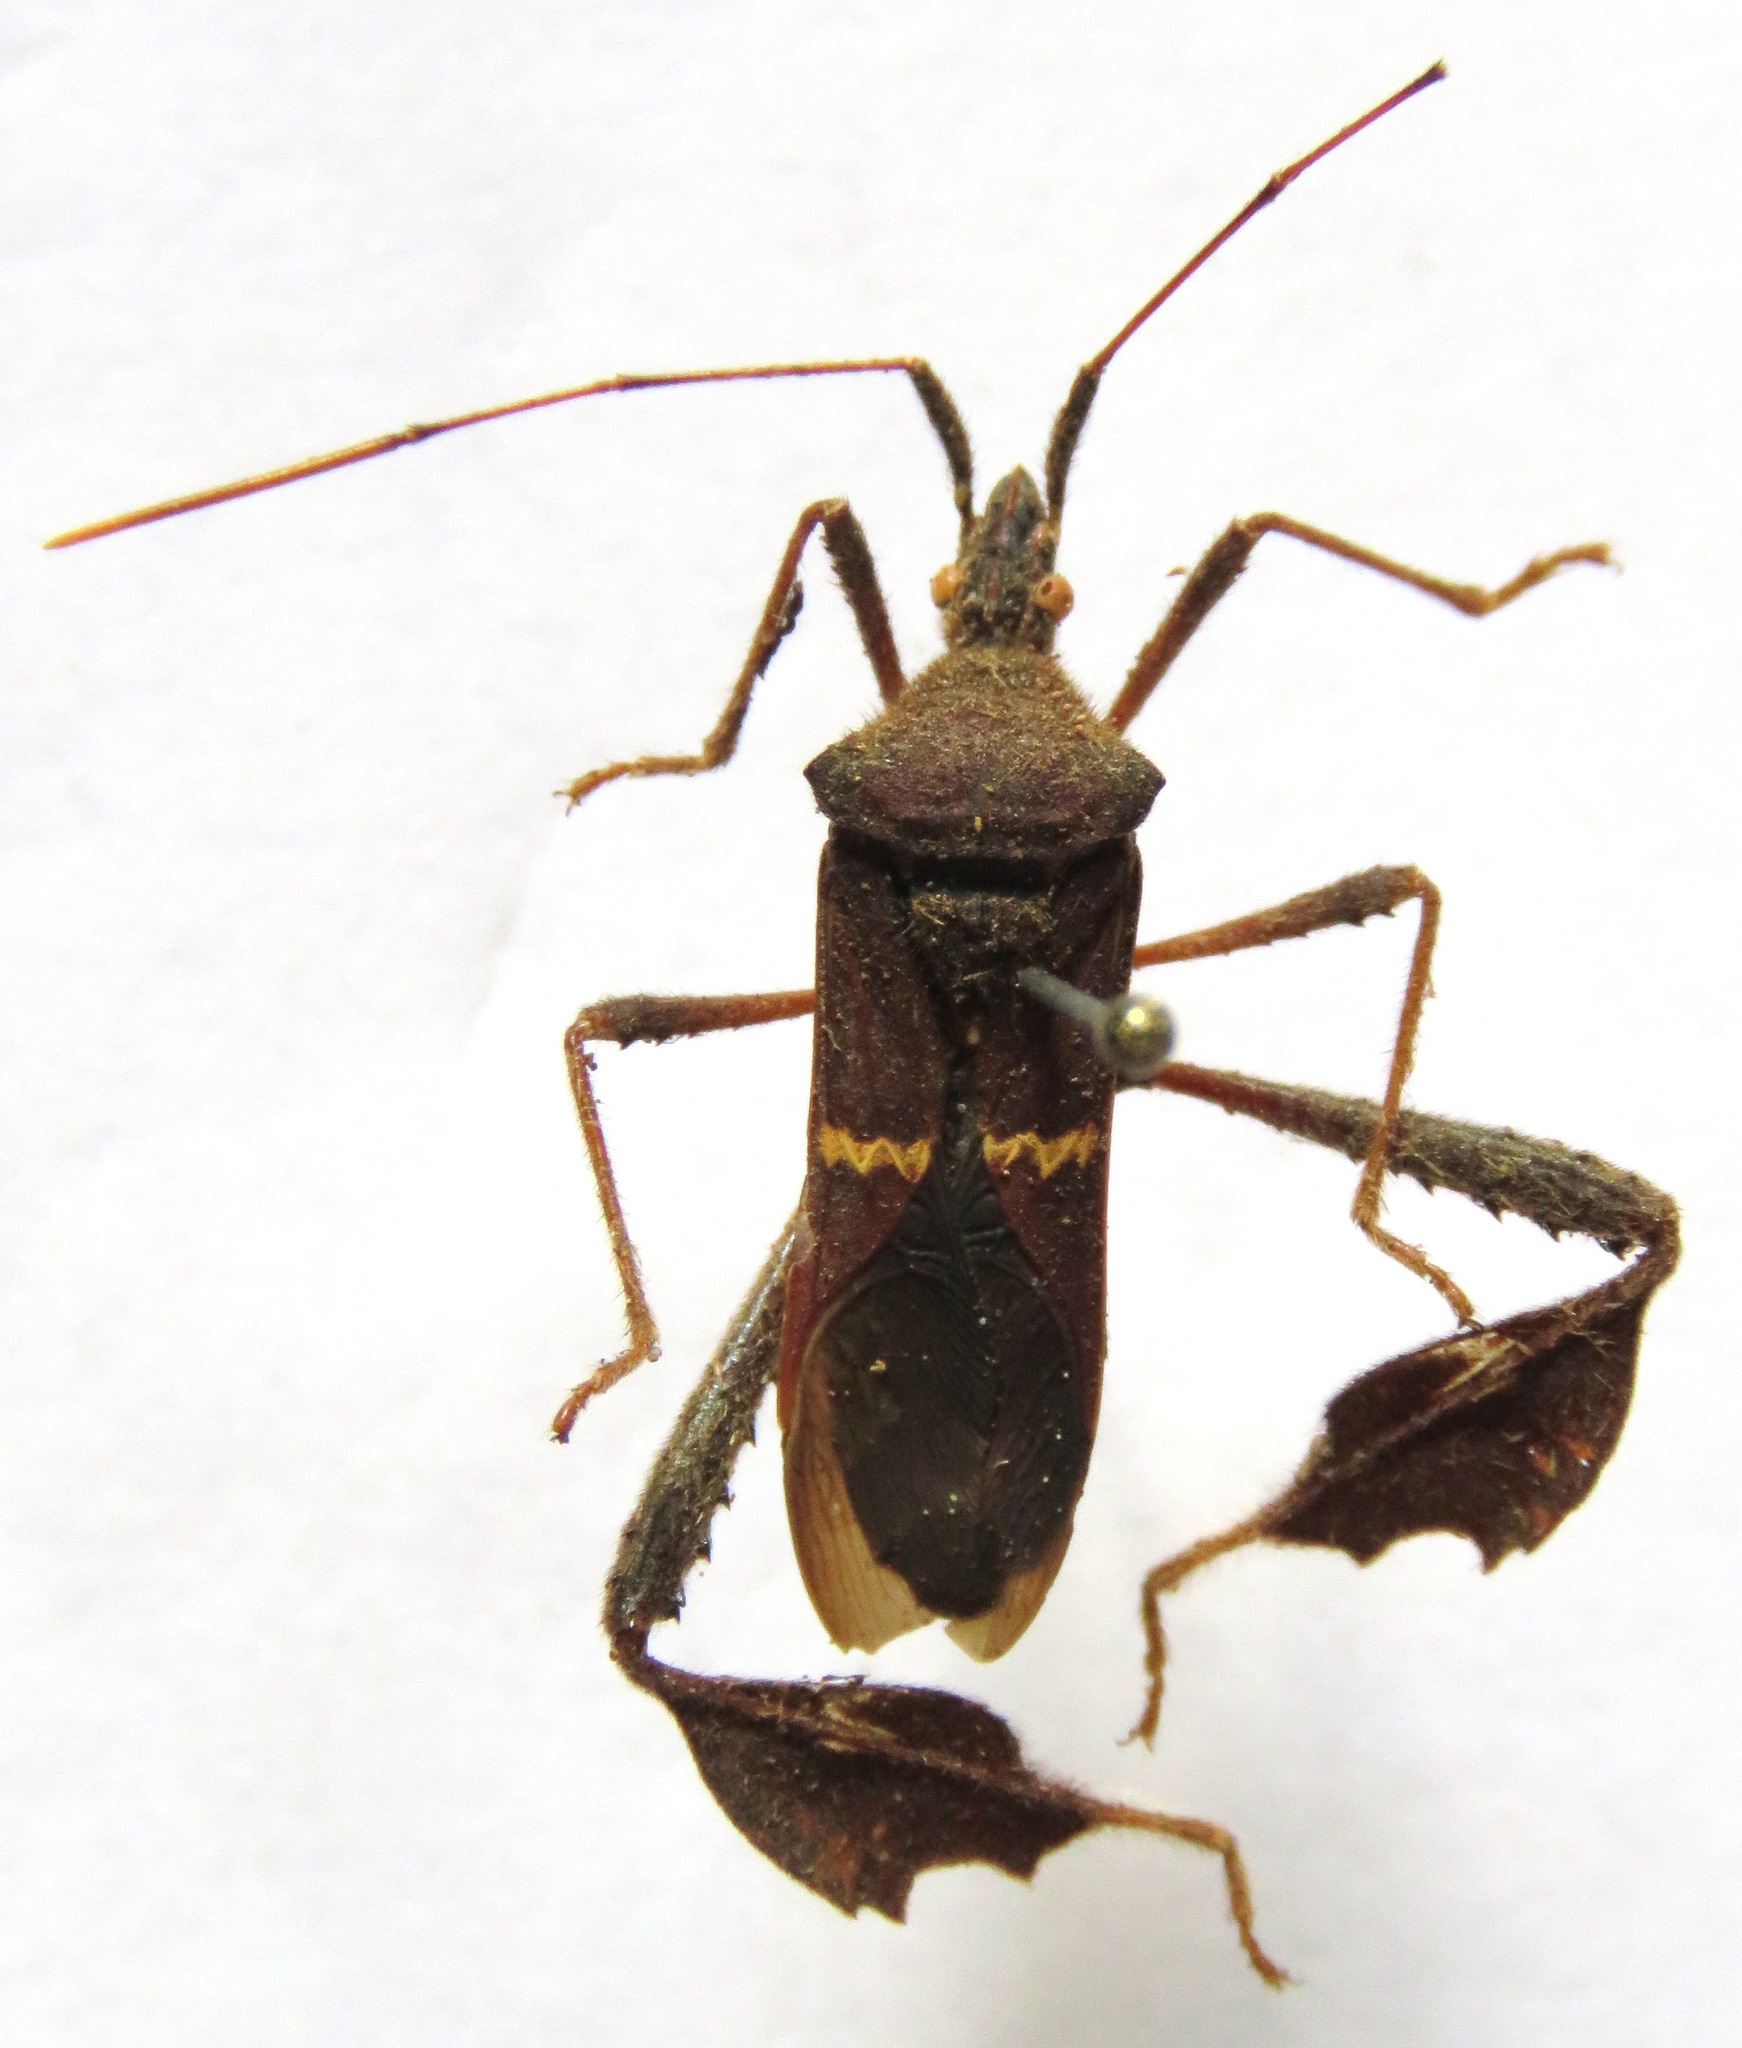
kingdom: Animalia
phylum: Arthropoda
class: Insecta
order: Hemiptera
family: Coreidae
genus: Leptoglossus
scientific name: Leptoglossus concolor
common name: Leaf-footed bug
